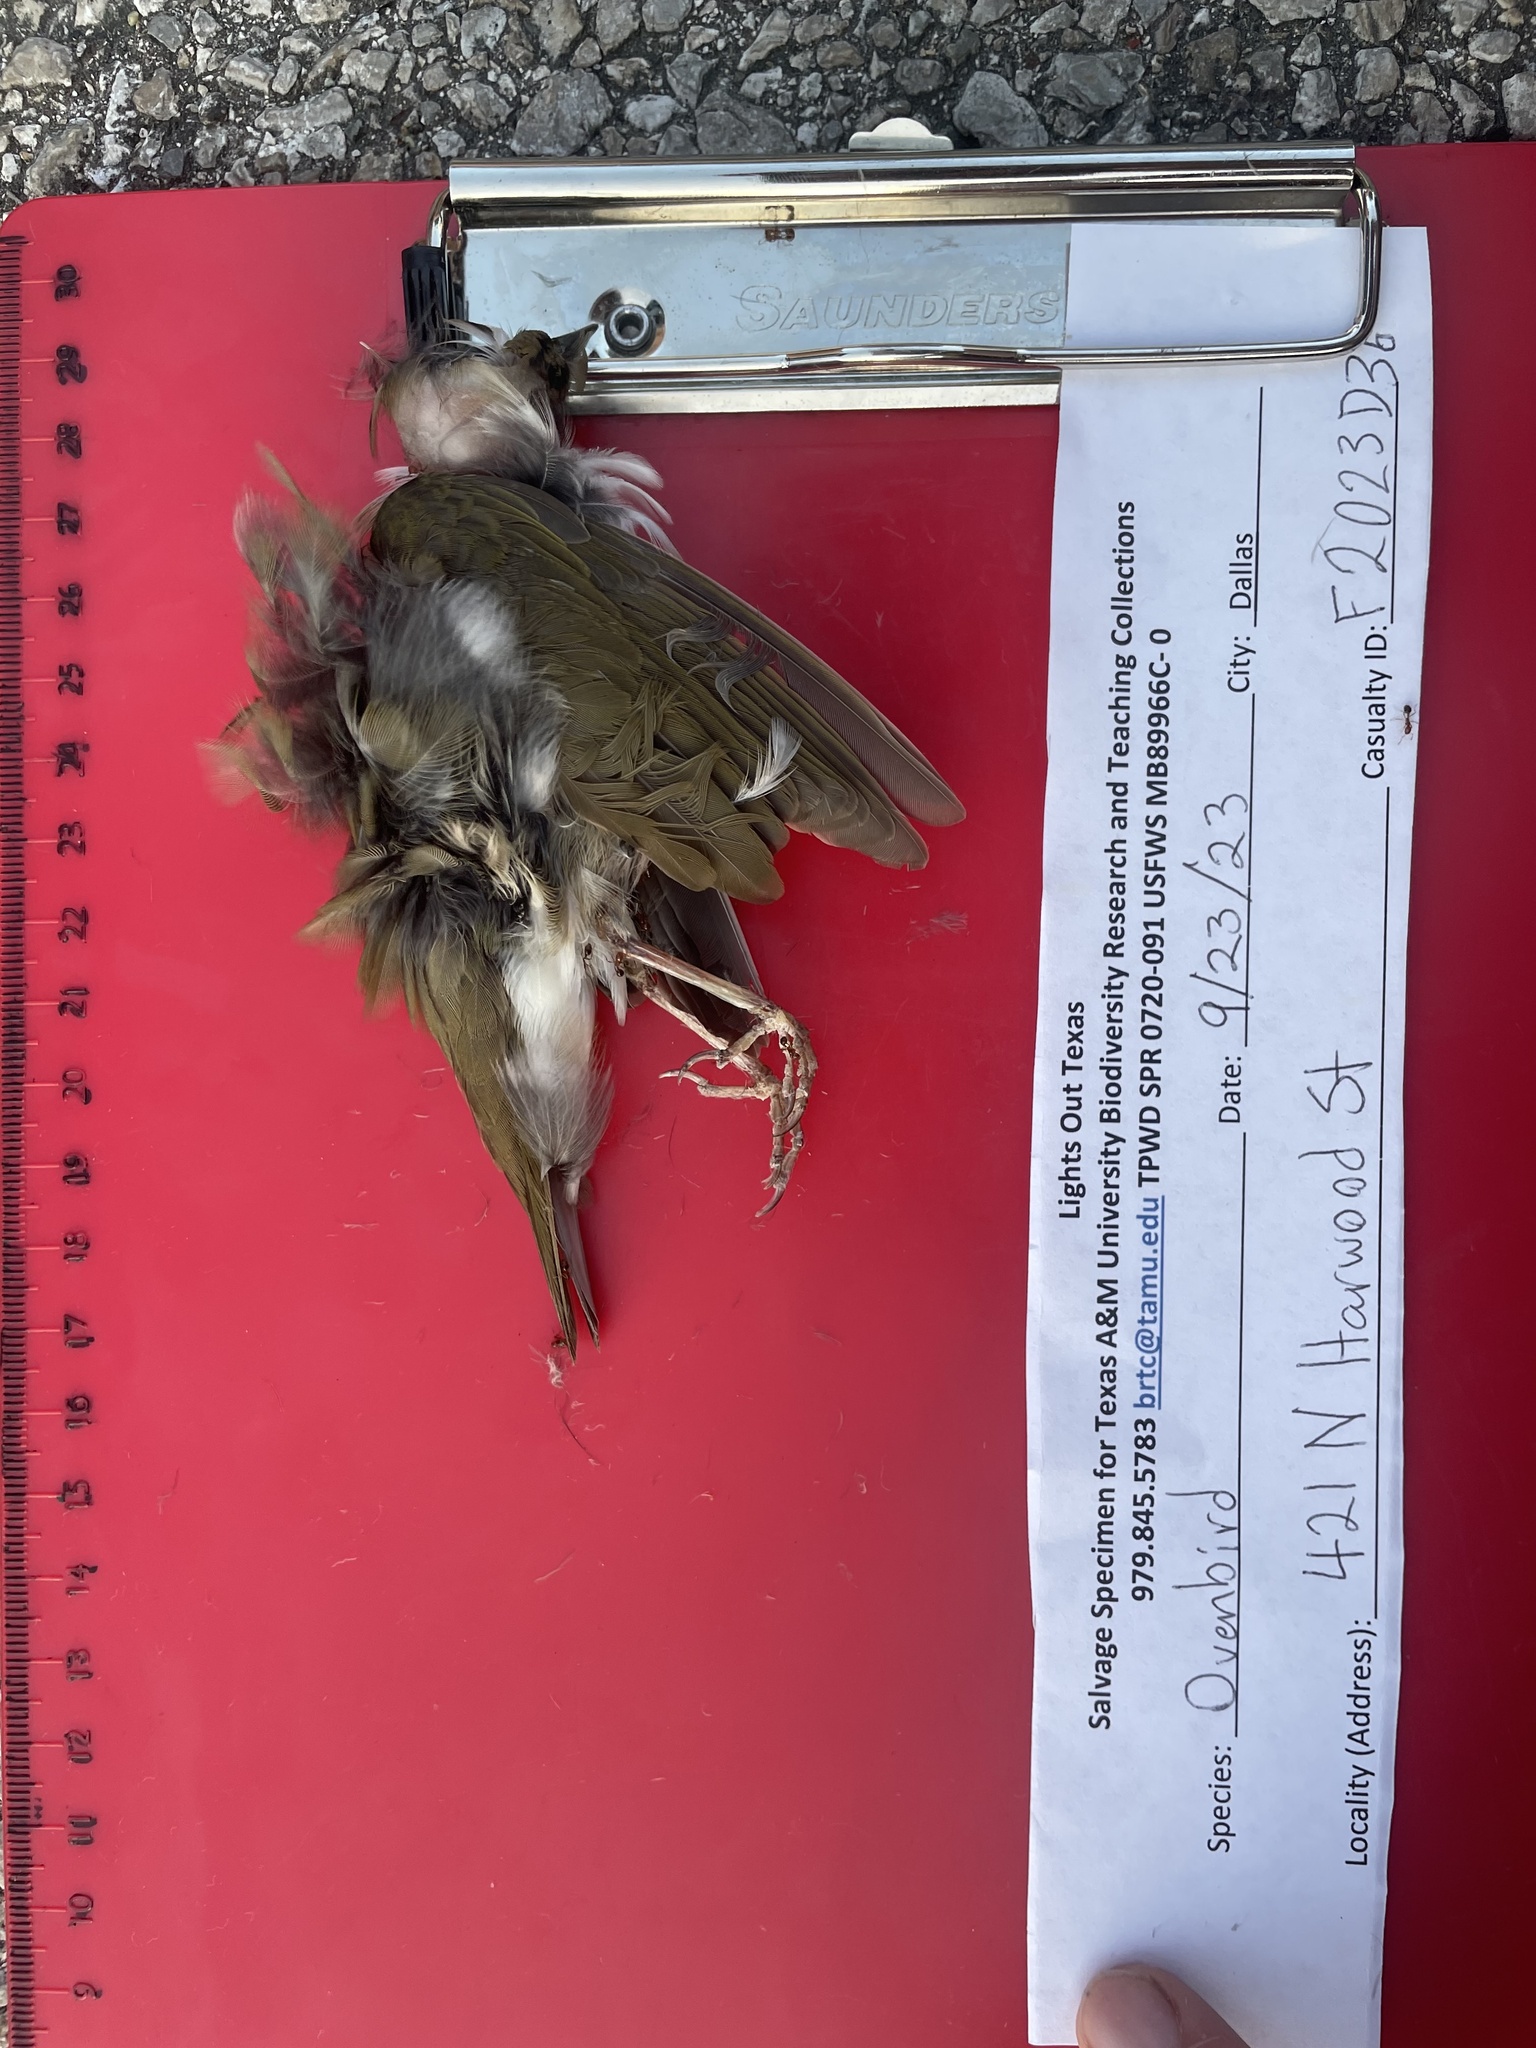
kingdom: Animalia
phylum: Chordata
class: Aves
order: Passeriformes
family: Parulidae
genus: Seiurus
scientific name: Seiurus aurocapilla
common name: Ovenbird
